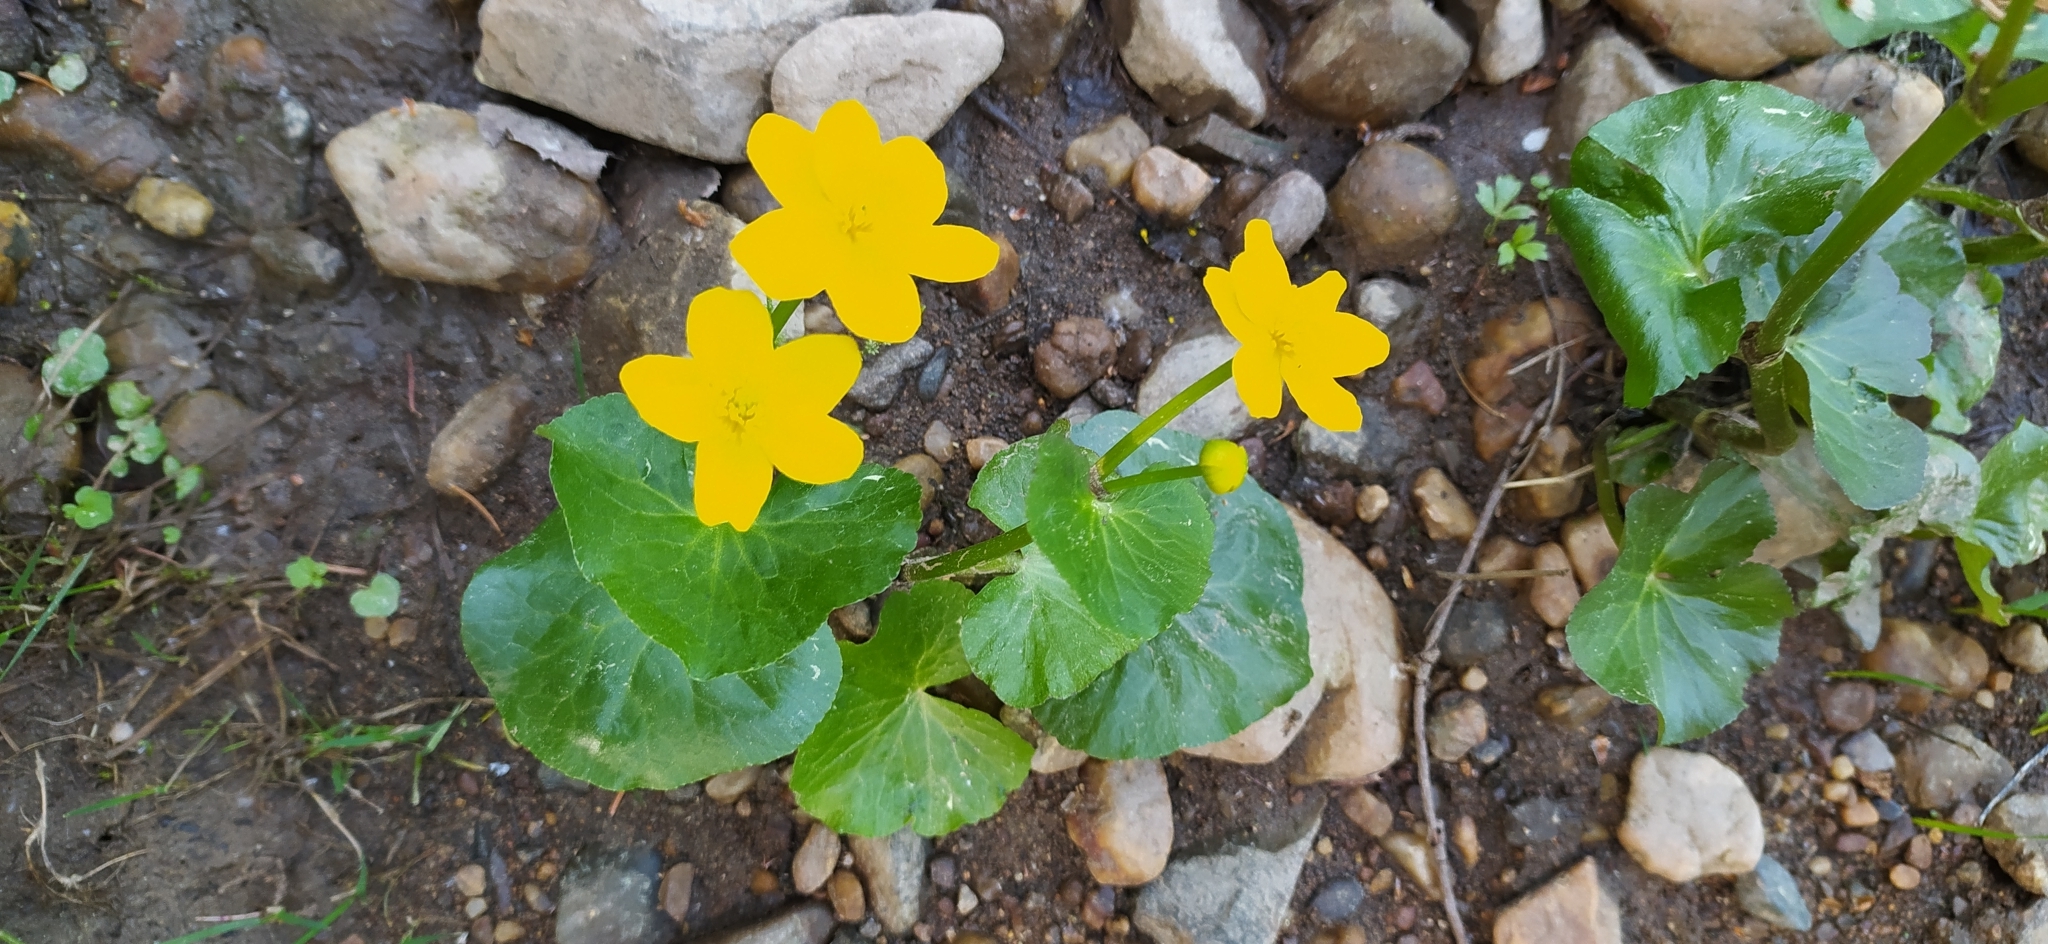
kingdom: Plantae
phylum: Tracheophyta
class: Magnoliopsida
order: Ranunculales
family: Ranunculaceae
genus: Caltha
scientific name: Caltha palustris
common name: Marsh marigold
